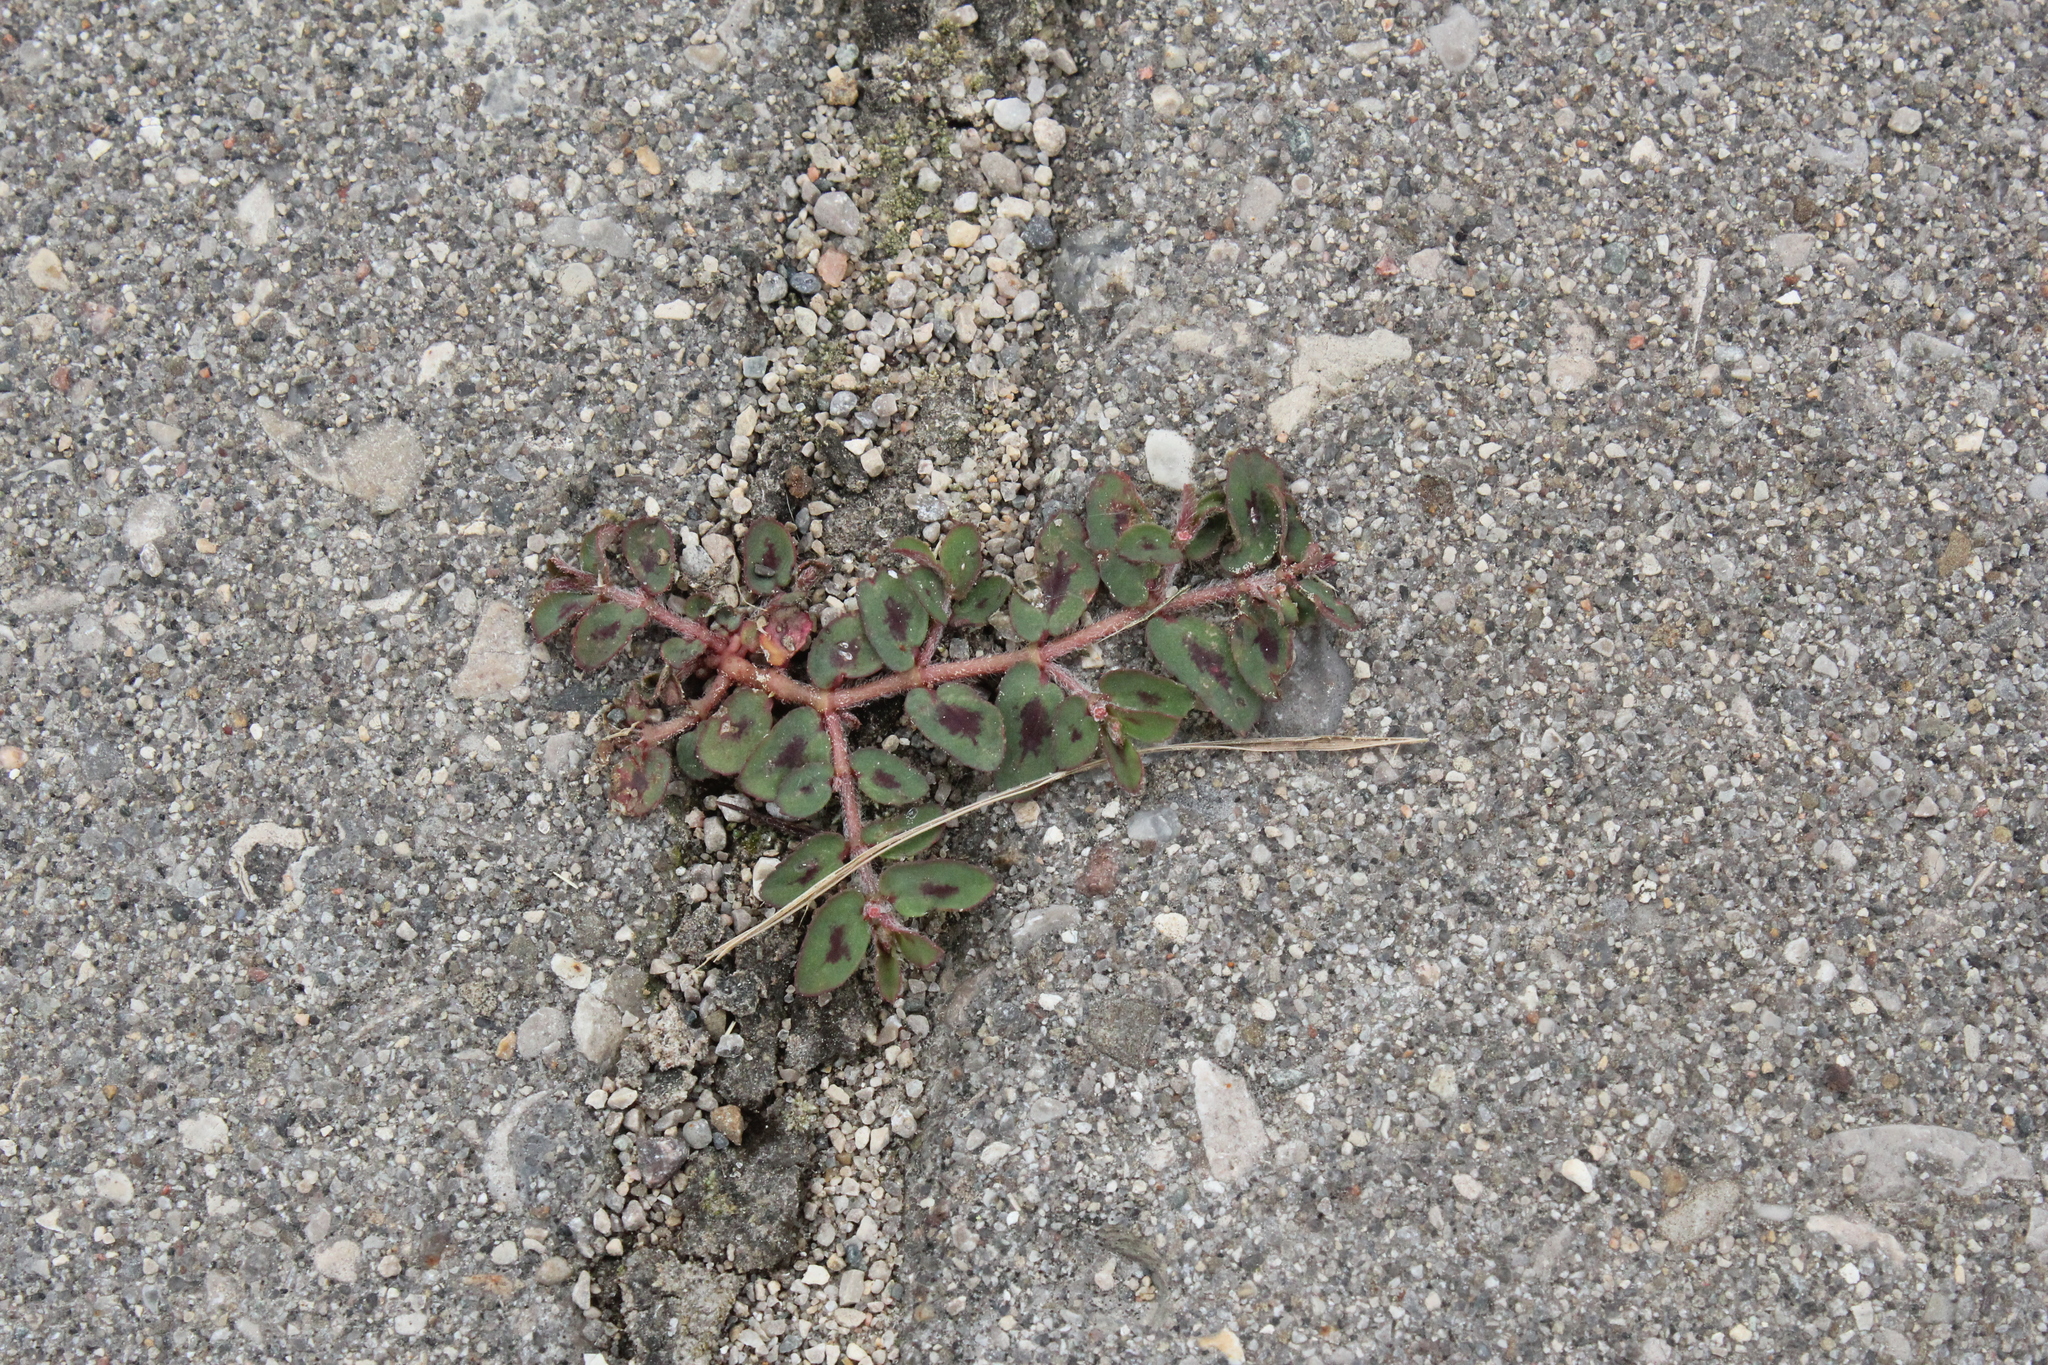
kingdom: Plantae
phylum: Tracheophyta
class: Magnoliopsida
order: Malpighiales
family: Euphorbiaceae
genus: Euphorbia
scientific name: Euphorbia maculata
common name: Spotted spurge
